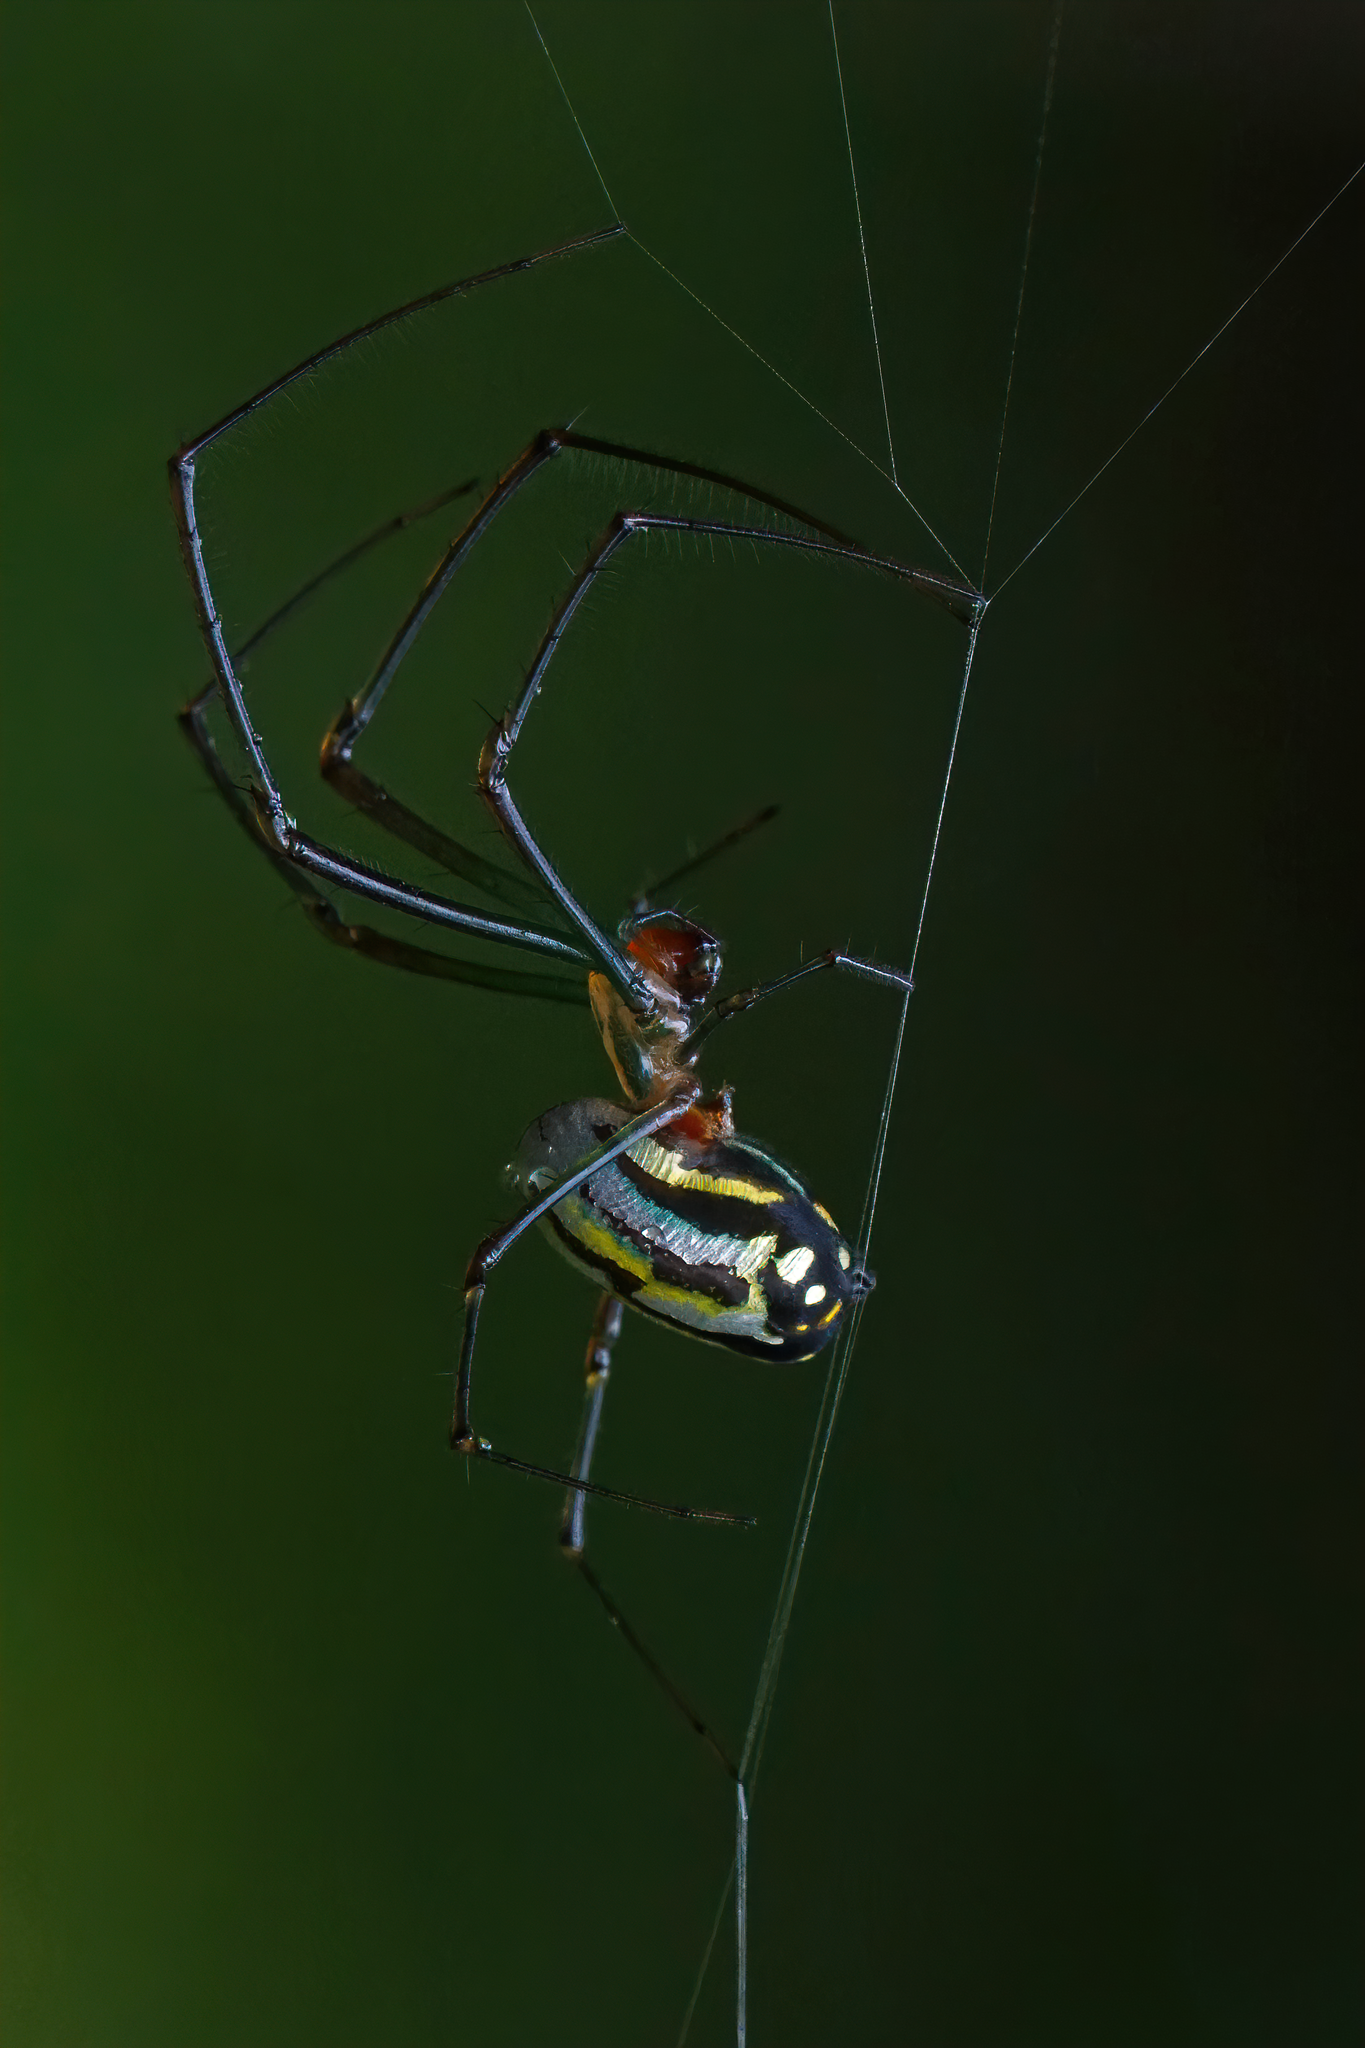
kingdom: Animalia
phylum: Arthropoda
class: Arachnida
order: Araneae
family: Tetragnathidae
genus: Leucauge
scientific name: Leucauge argyra
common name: Longjawed orb weavers
